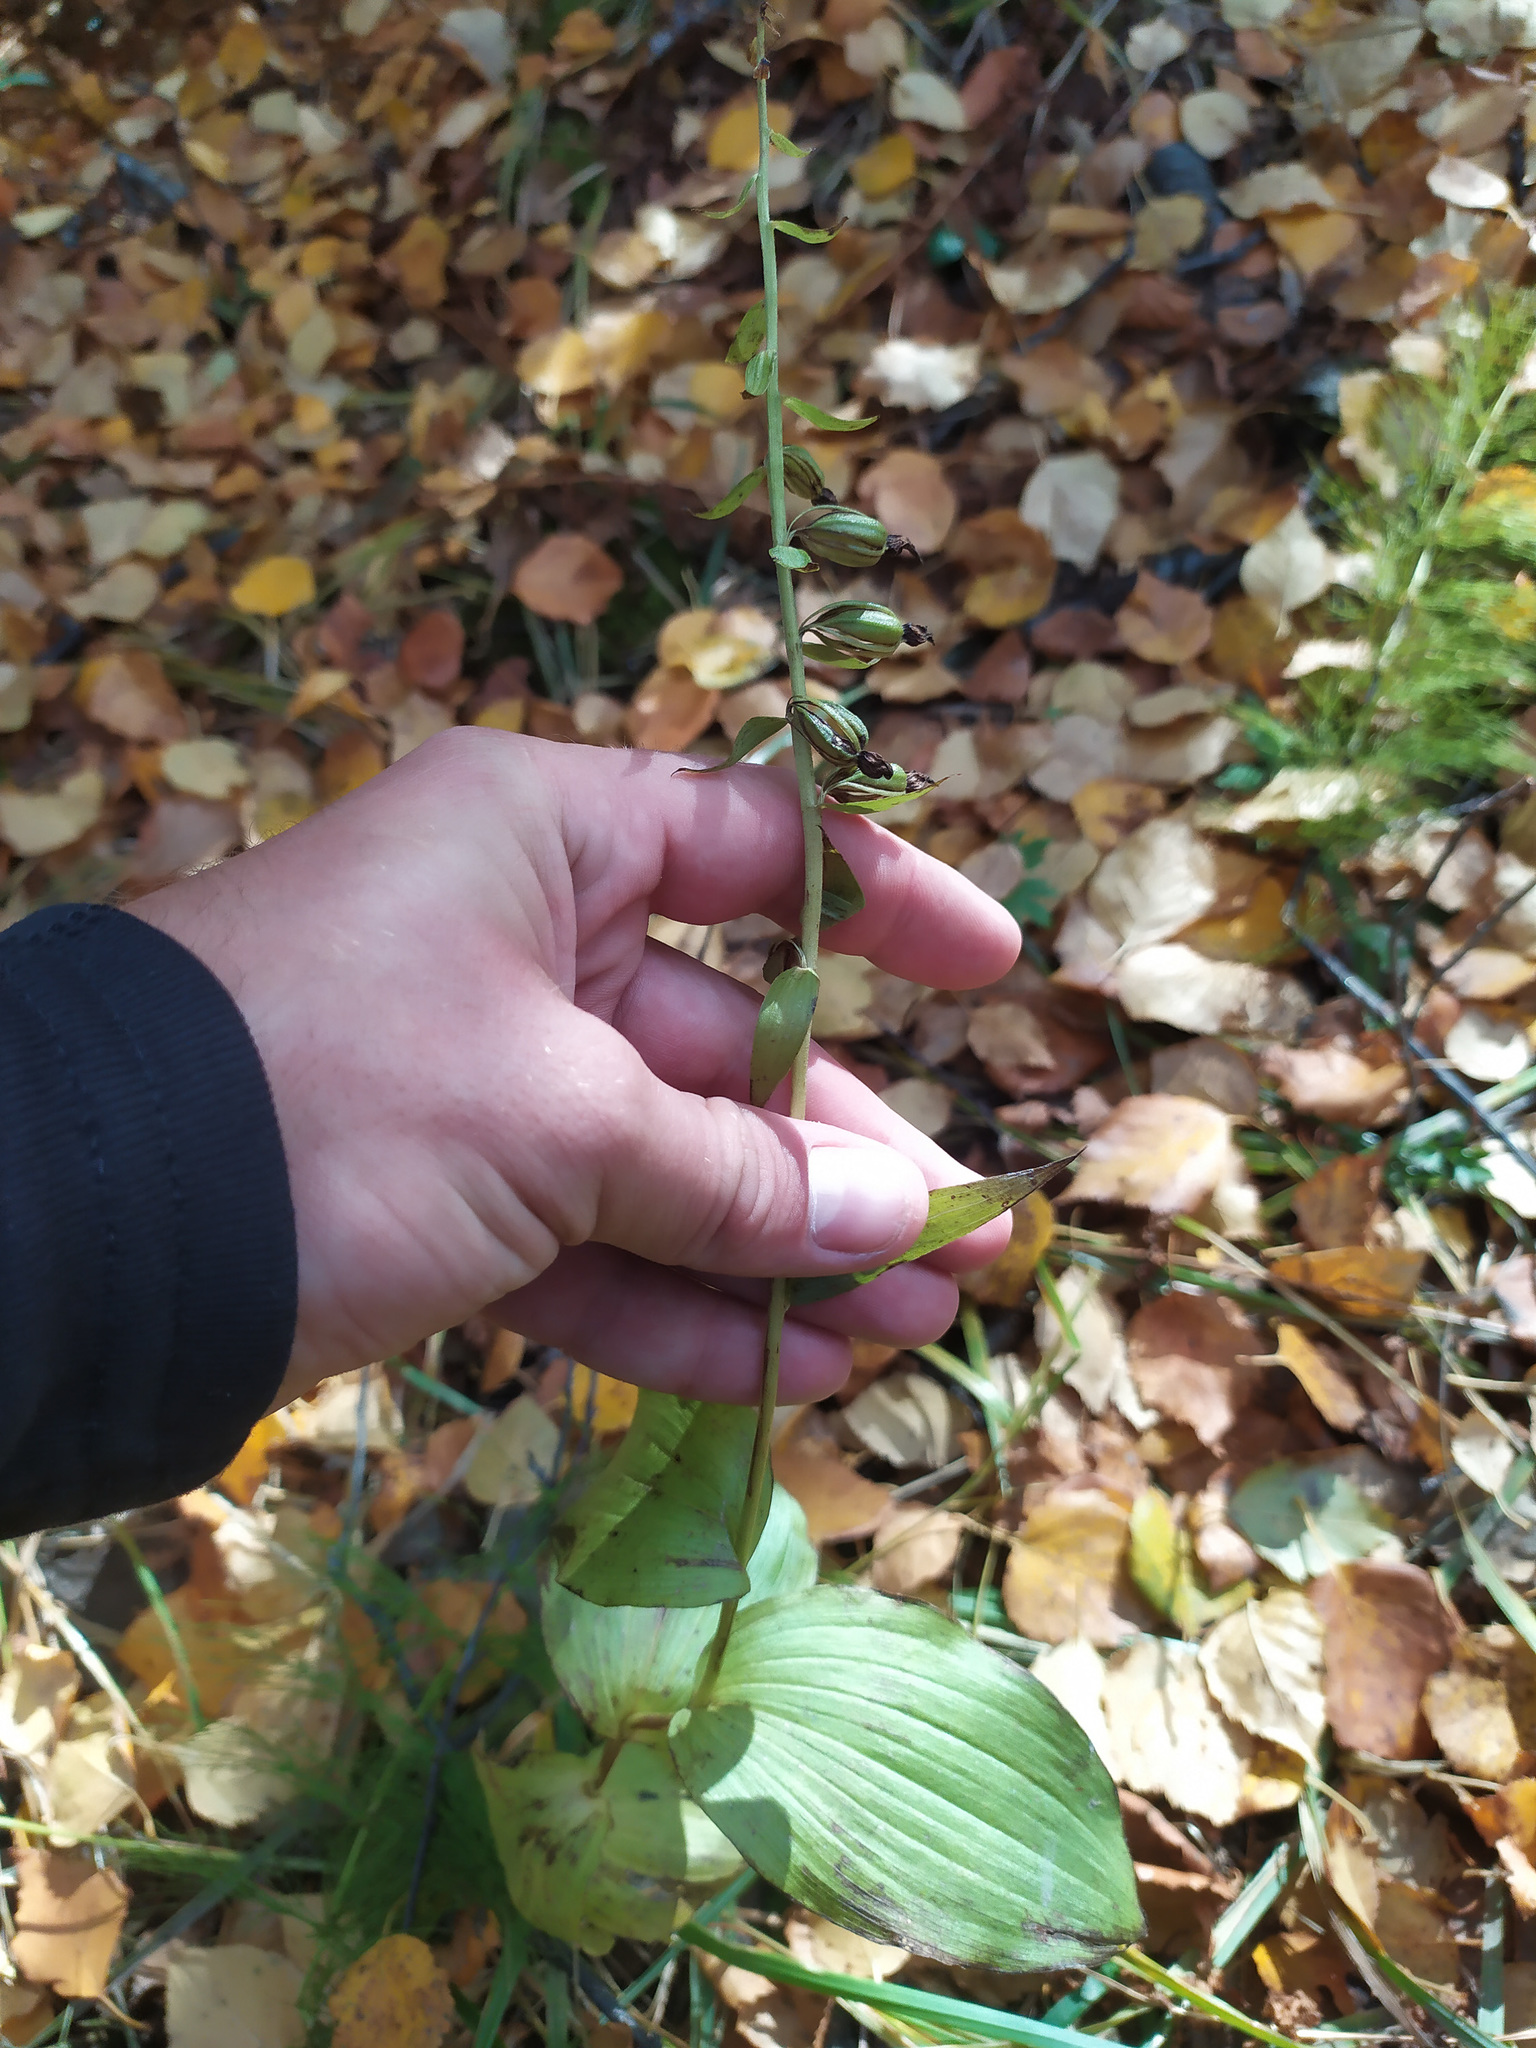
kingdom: Plantae
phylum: Tracheophyta
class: Liliopsida
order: Asparagales
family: Orchidaceae
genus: Epipactis
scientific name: Epipactis helleborine
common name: Broad-leaved helleborine
